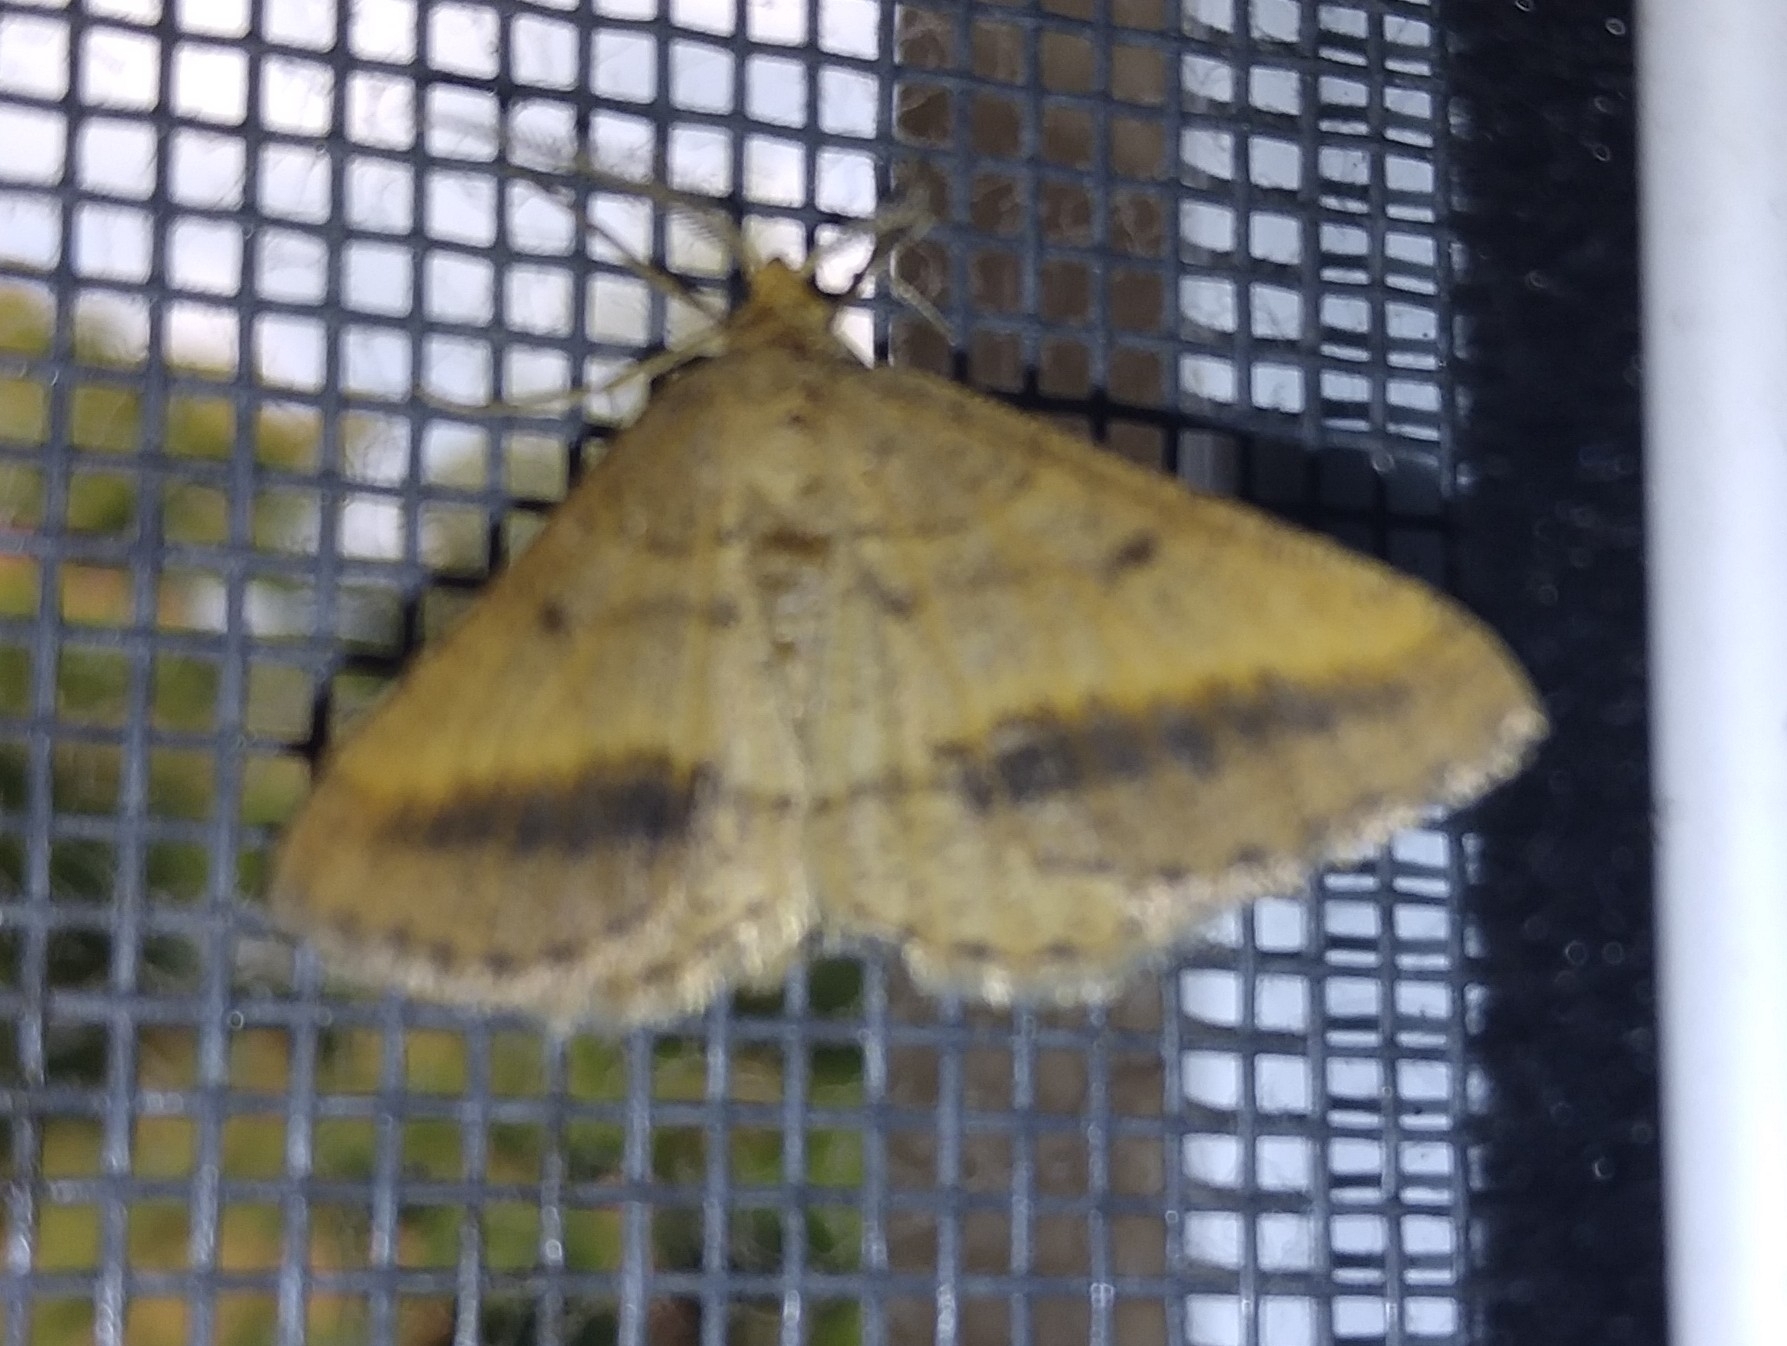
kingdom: Animalia
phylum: Arthropoda
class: Insecta
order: Lepidoptera
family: Geometridae
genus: Tephrina
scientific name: Tephrina arenacearia
